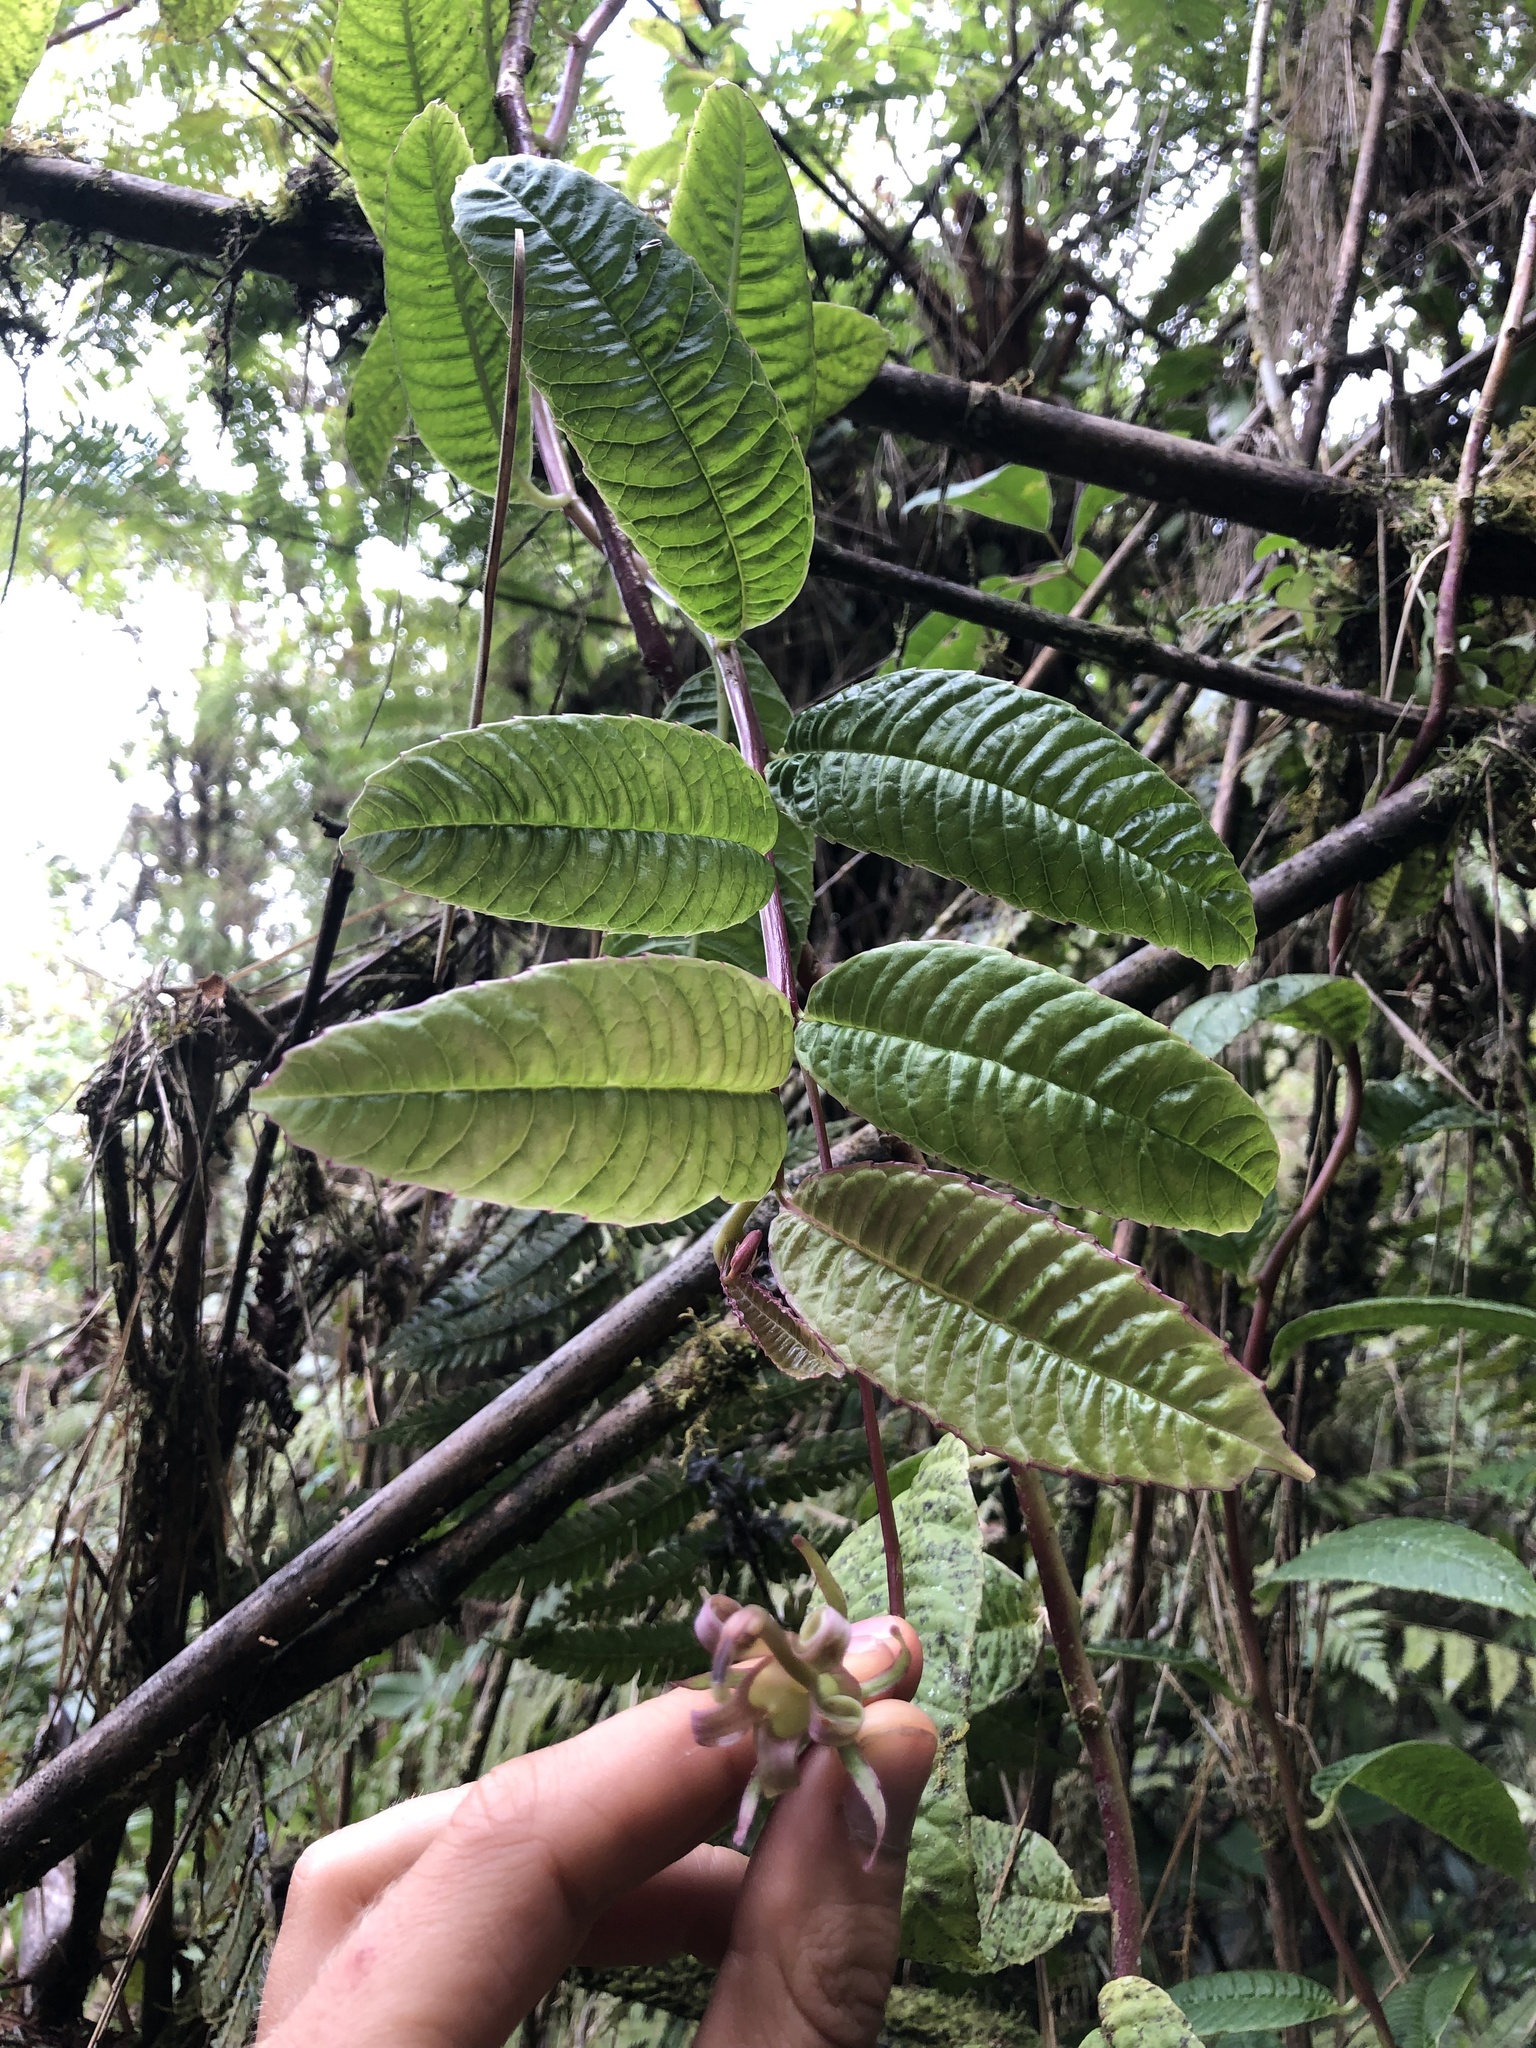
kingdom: Plantae
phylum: Tracheophyta
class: Magnoliopsida
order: Asterales
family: Campanulaceae
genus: Burmeistera
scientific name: Burmeistera succulenta
